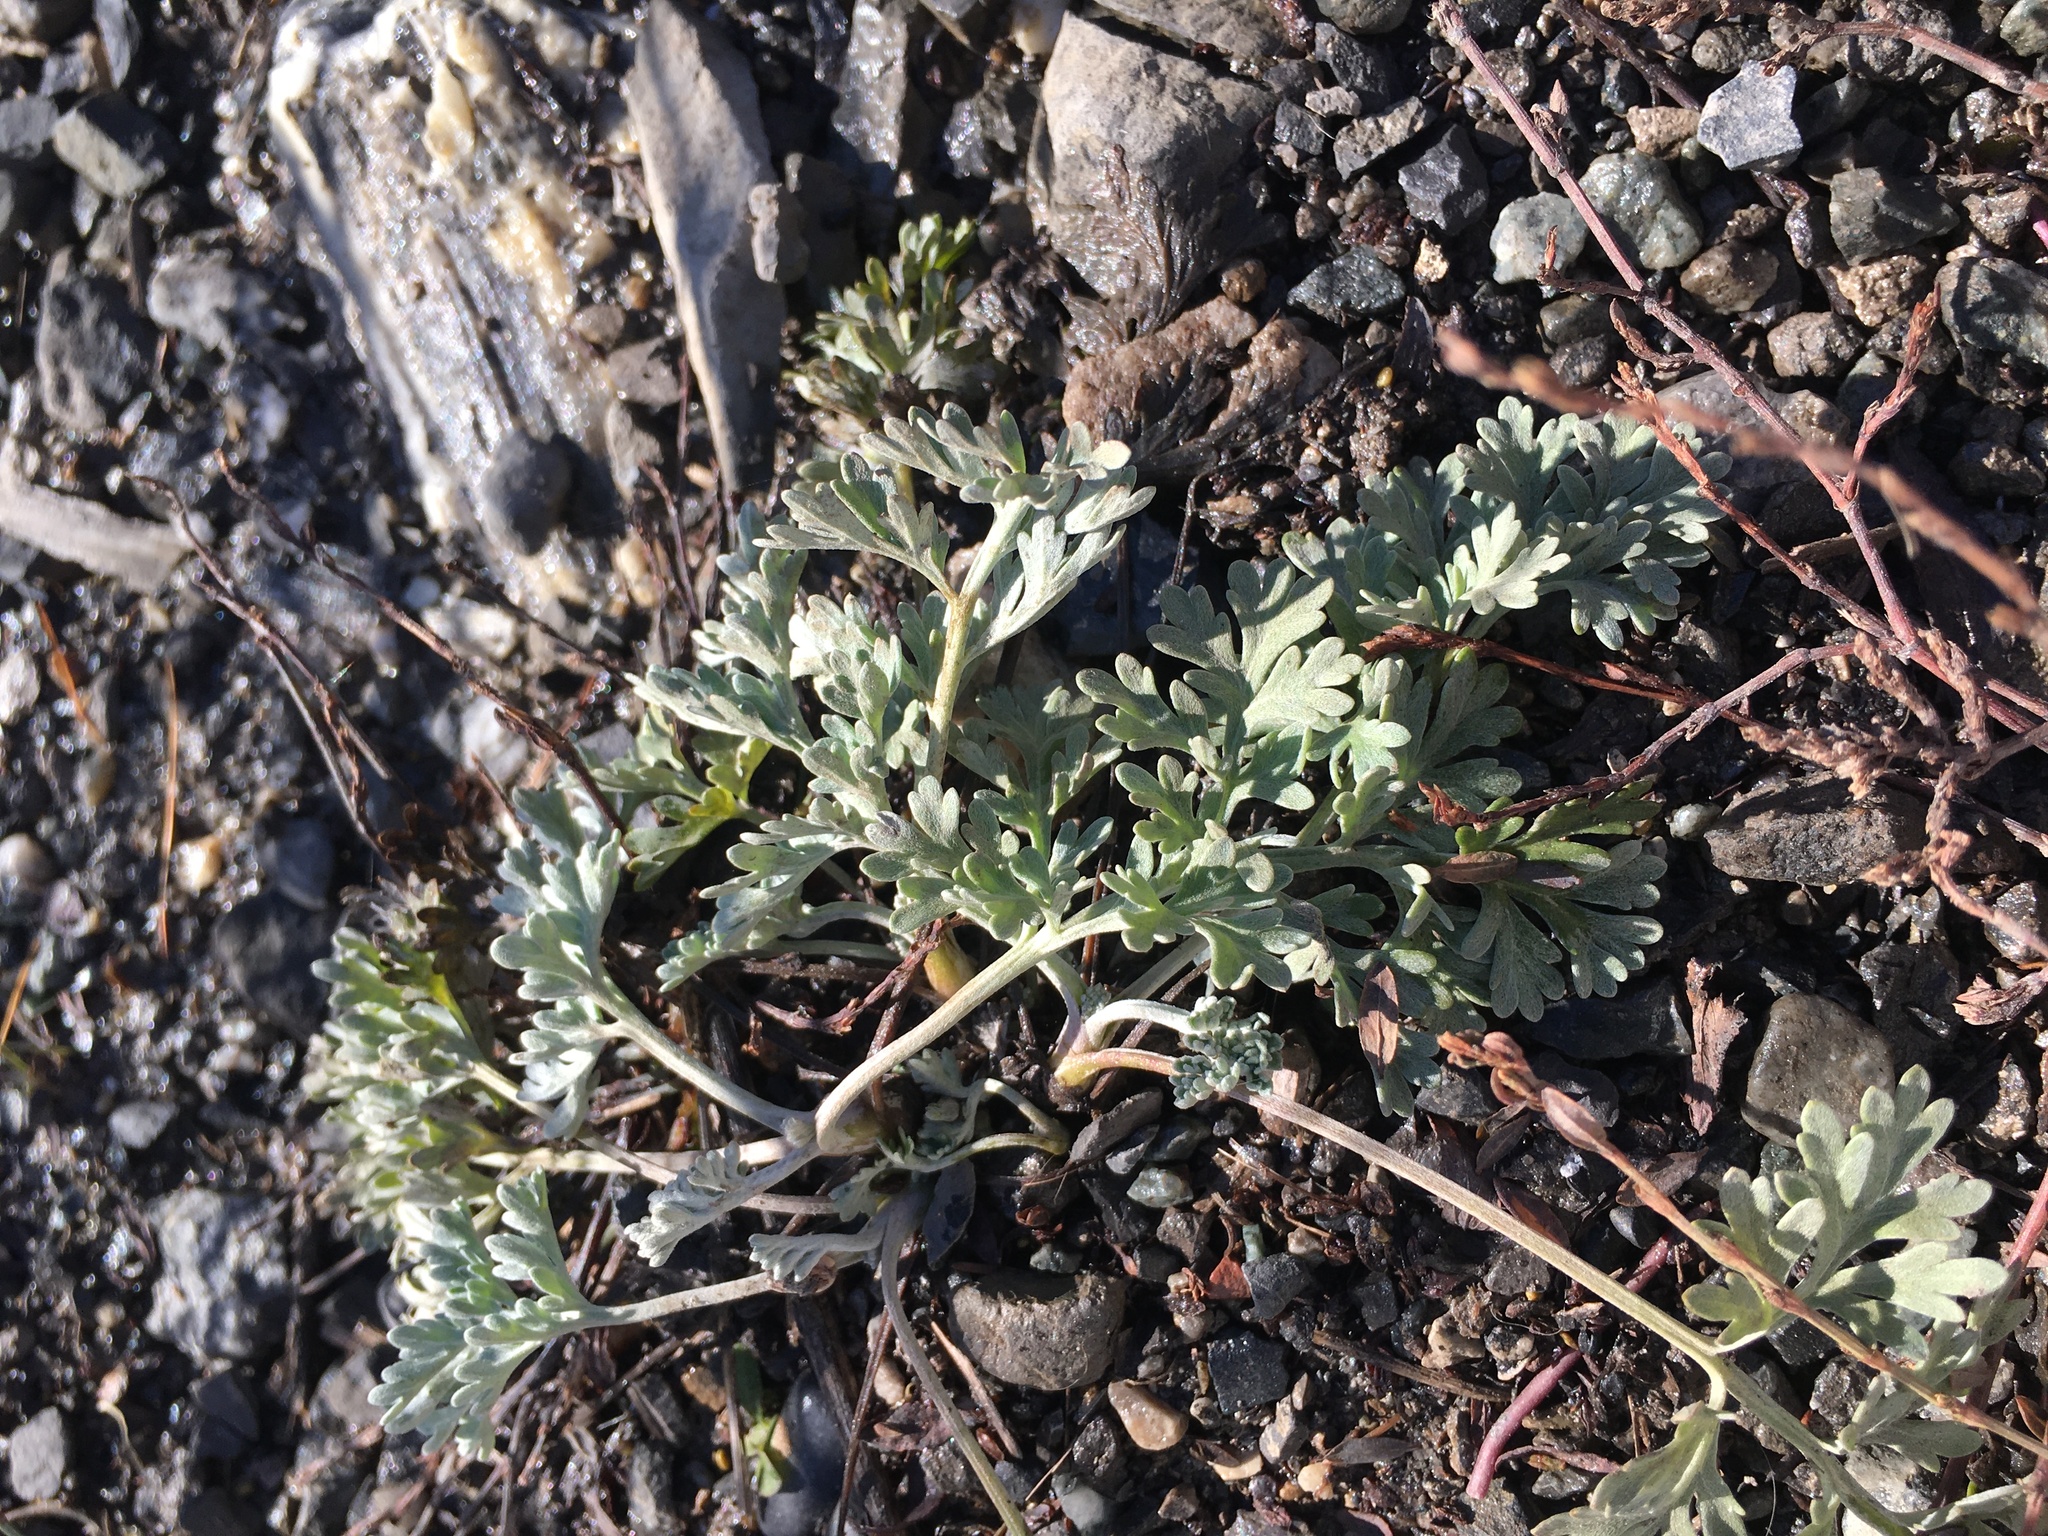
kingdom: Plantae
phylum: Tracheophyta
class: Magnoliopsida
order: Asterales
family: Asteraceae
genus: Artemisia
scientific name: Artemisia absinthium
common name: Wormwood
